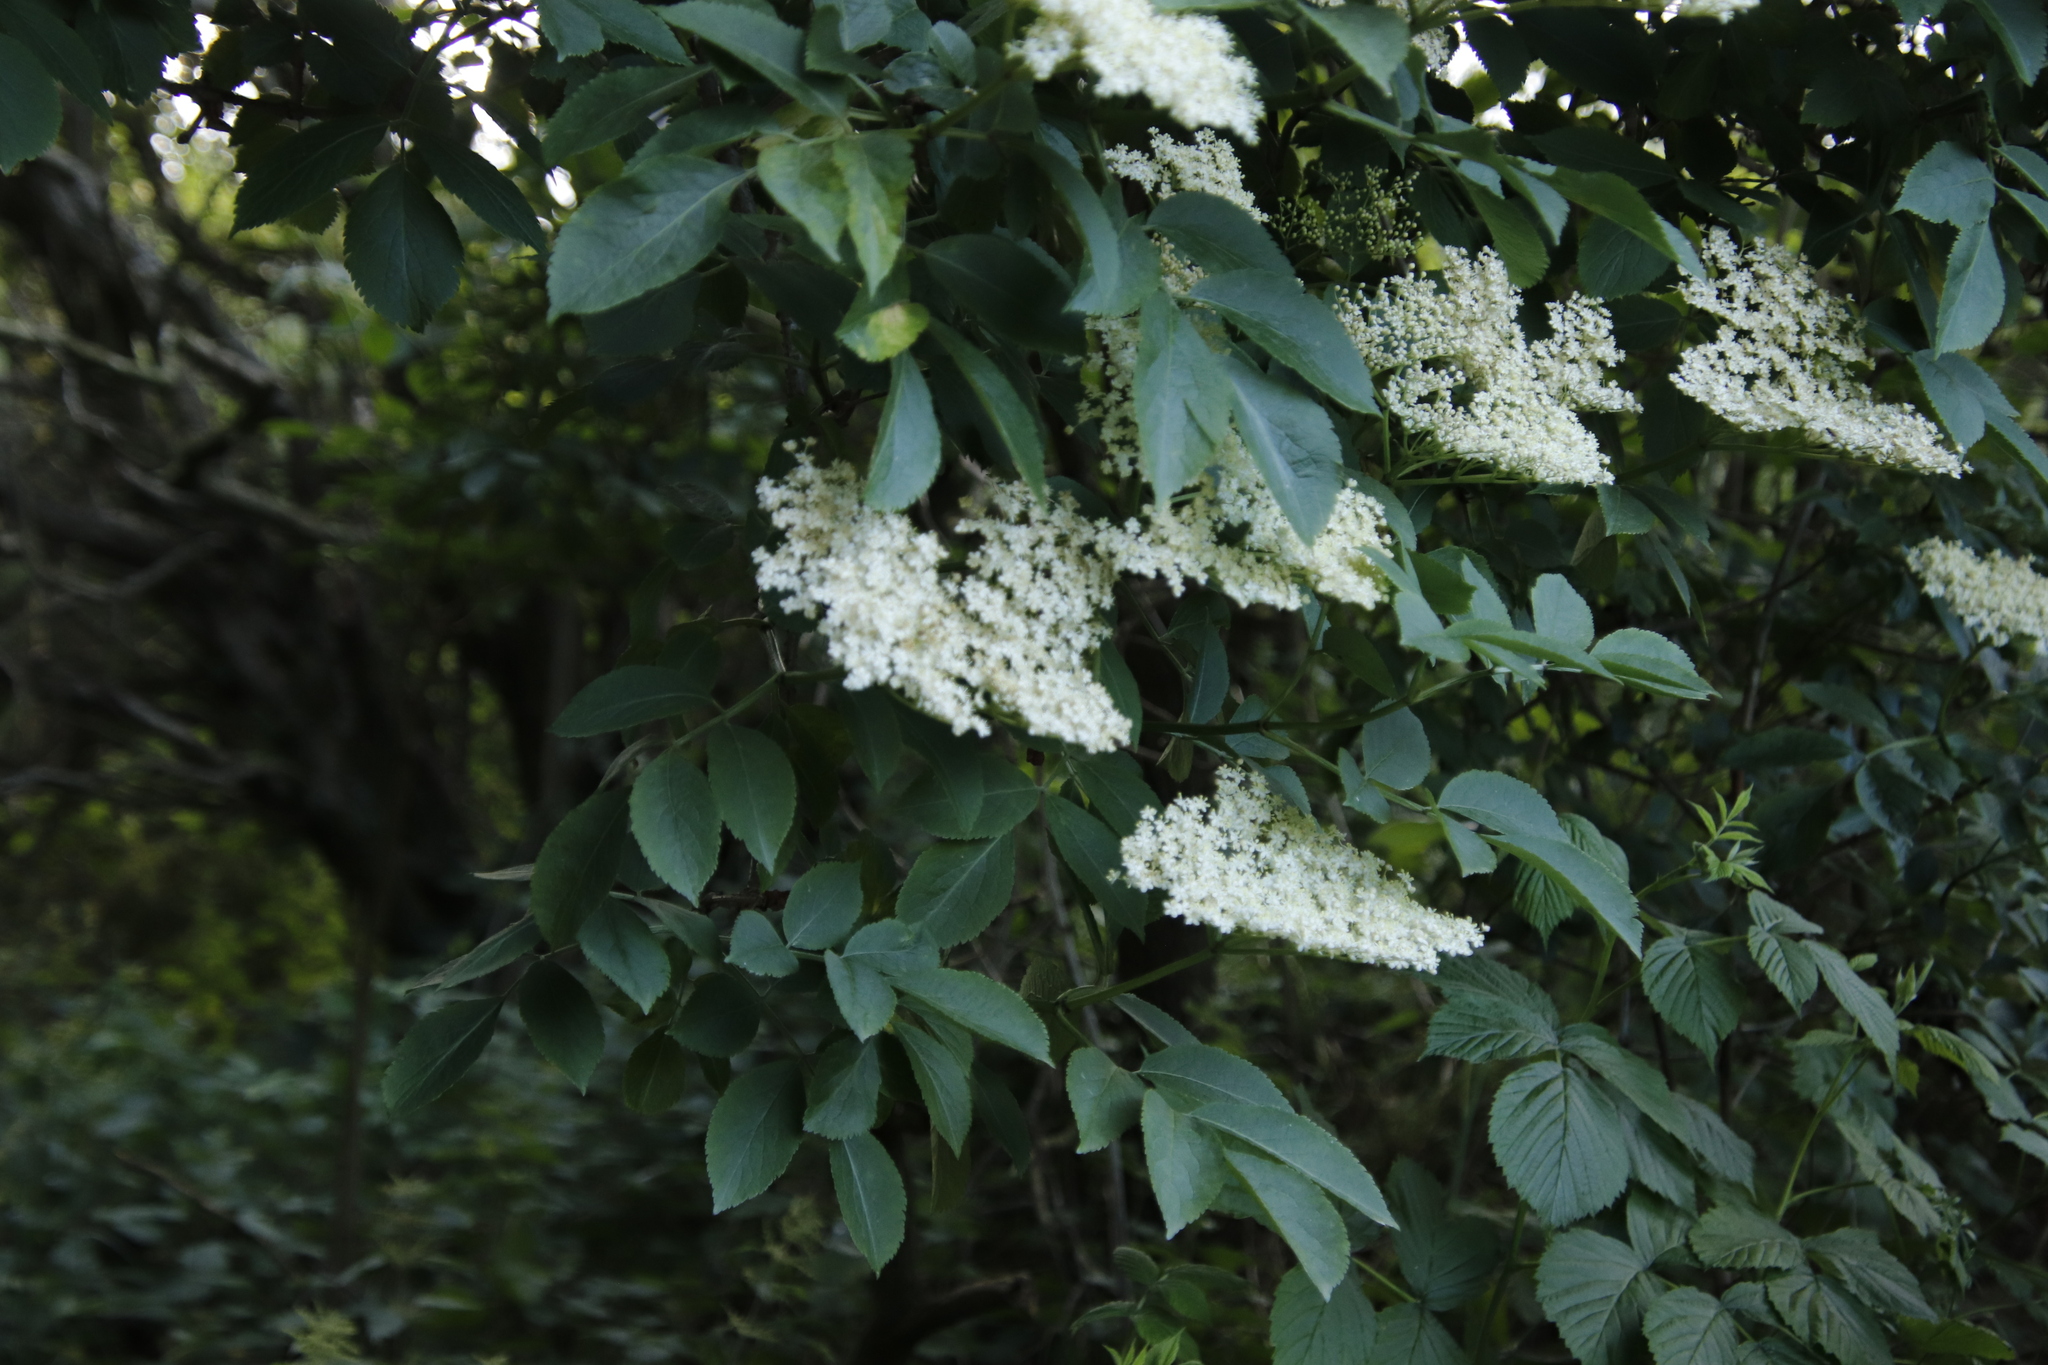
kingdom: Plantae
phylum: Tracheophyta
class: Magnoliopsida
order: Dipsacales
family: Viburnaceae
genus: Sambucus
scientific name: Sambucus nigra
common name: Elder
